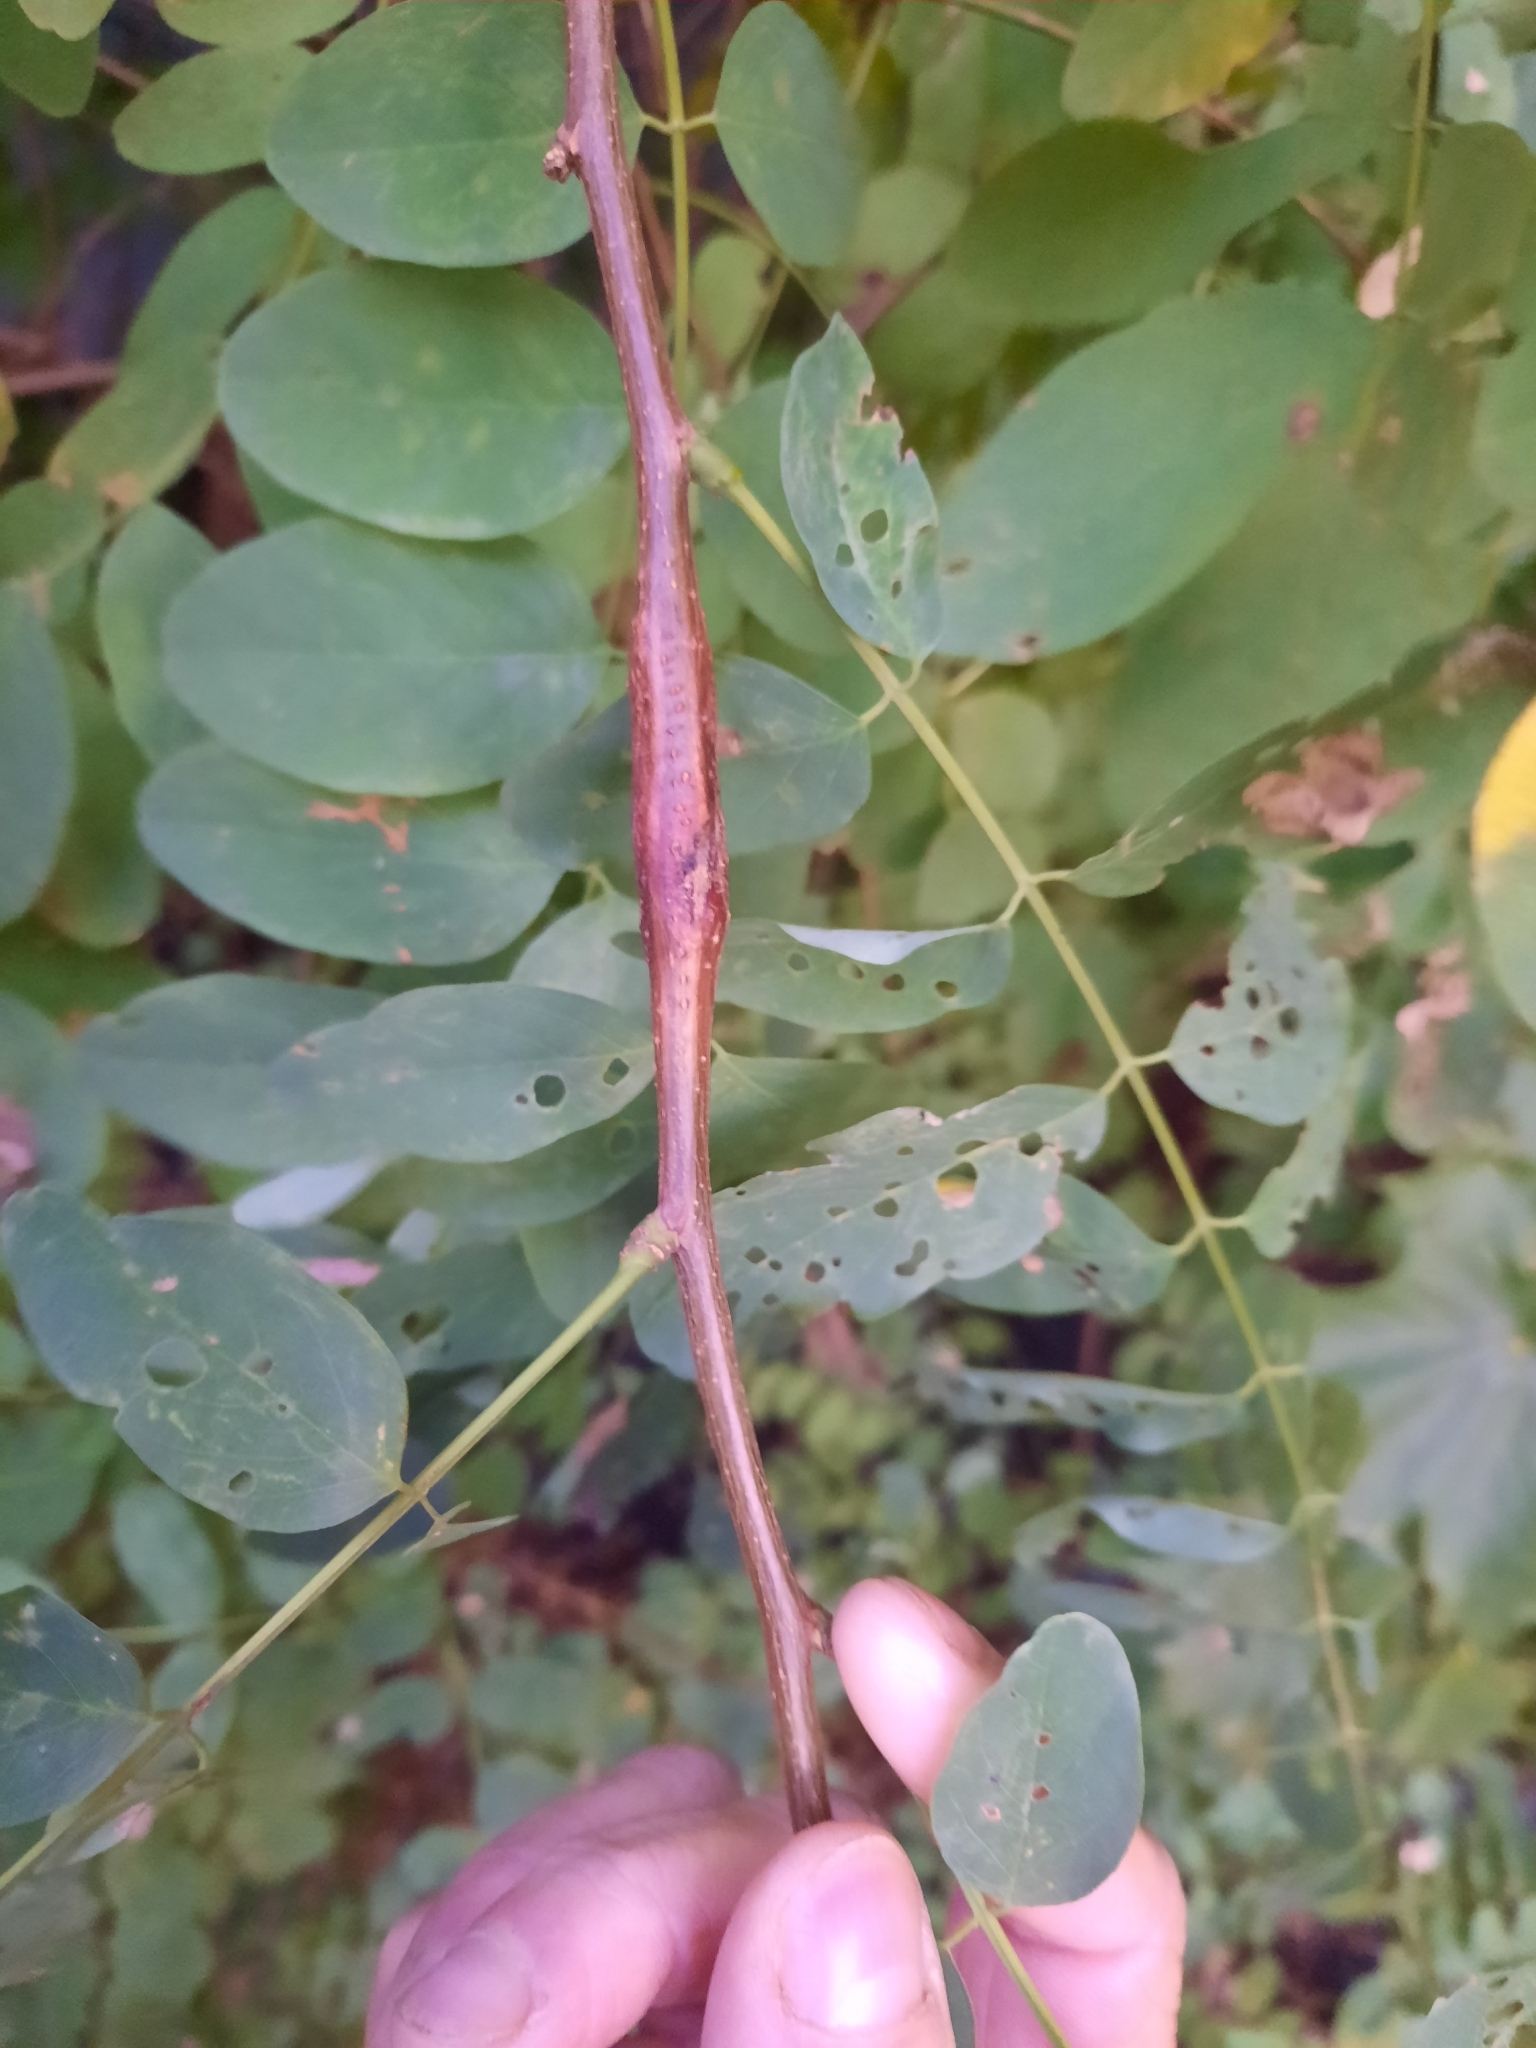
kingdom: Animalia
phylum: Arthropoda
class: Insecta
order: Lepidoptera
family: Gracillariidae
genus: Parectopa
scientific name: Parectopa robiniella
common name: Locust digitate leafminer
